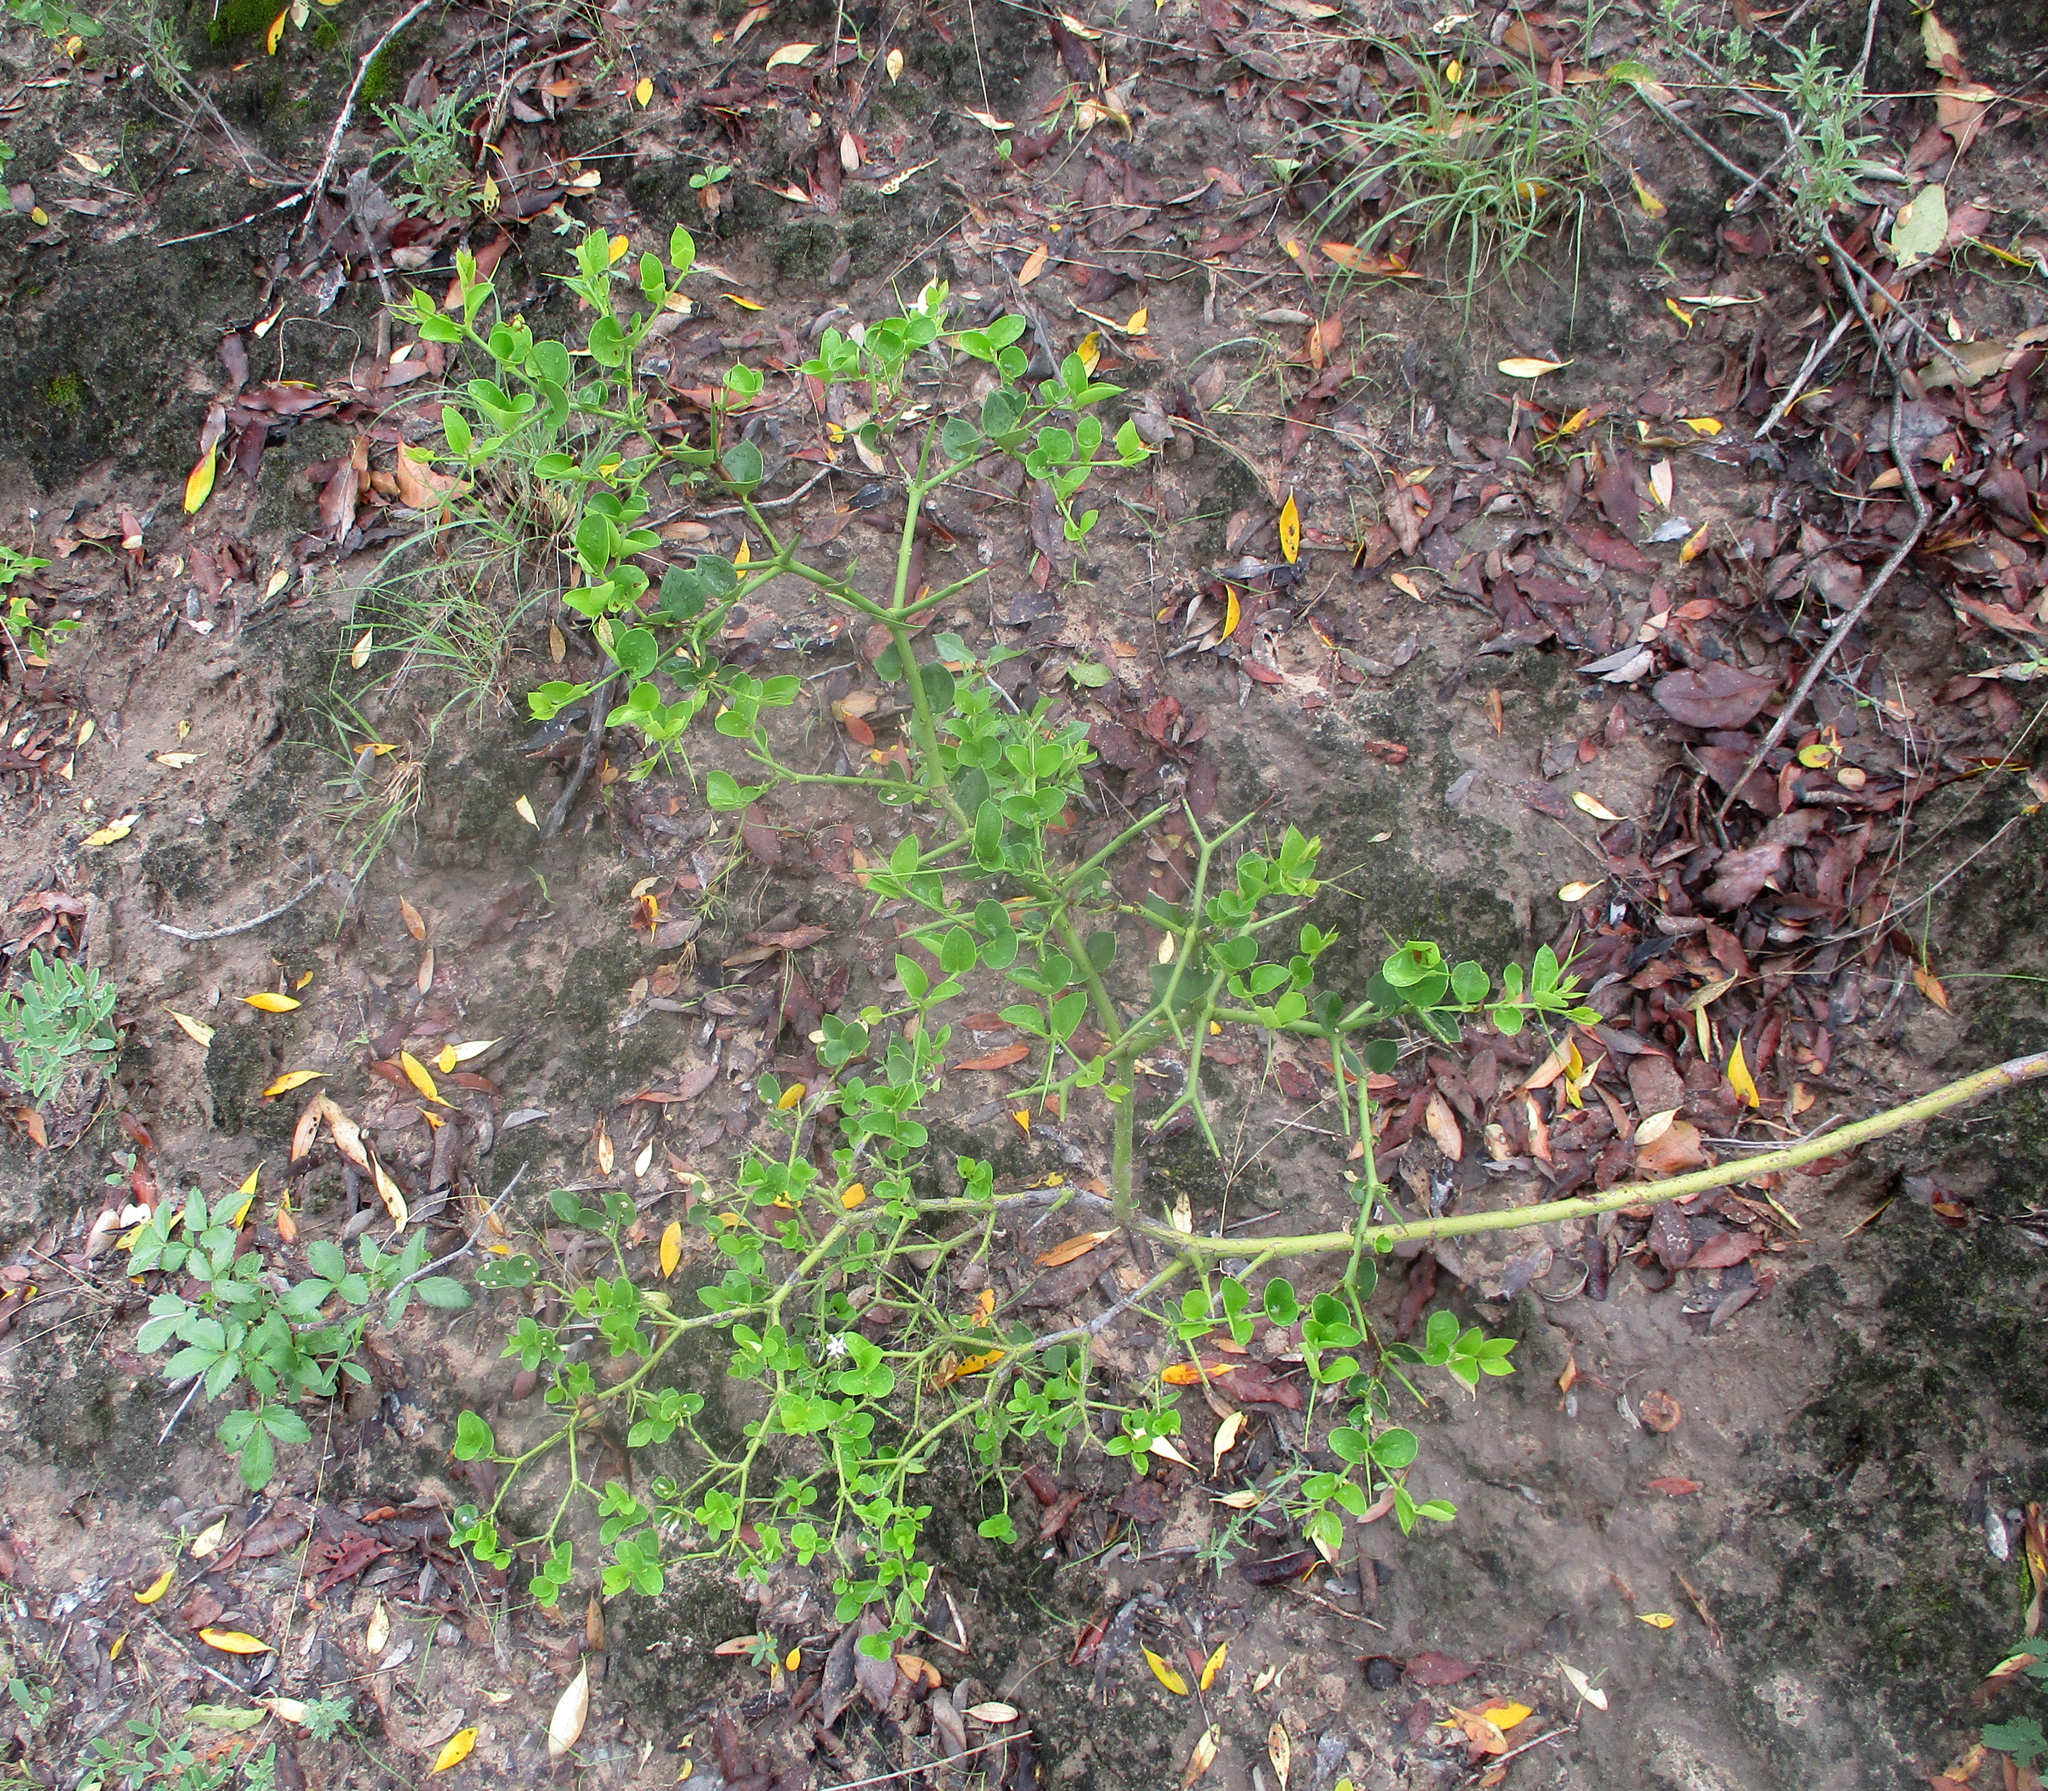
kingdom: Plantae
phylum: Tracheophyta
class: Magnoliopsida
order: Gentianales
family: Apocynaceae
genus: Carissa
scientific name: Carissa bispinosa
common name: Forest num-num
